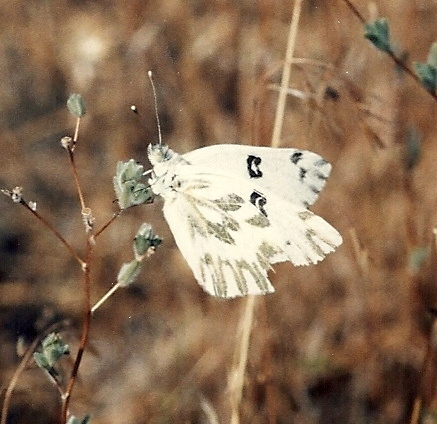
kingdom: Animalia
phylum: Arthropoda
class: Insecta
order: Lepidoptera
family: Pieridae
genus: Pontia
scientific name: Pontia beckerii
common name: Becker's white
